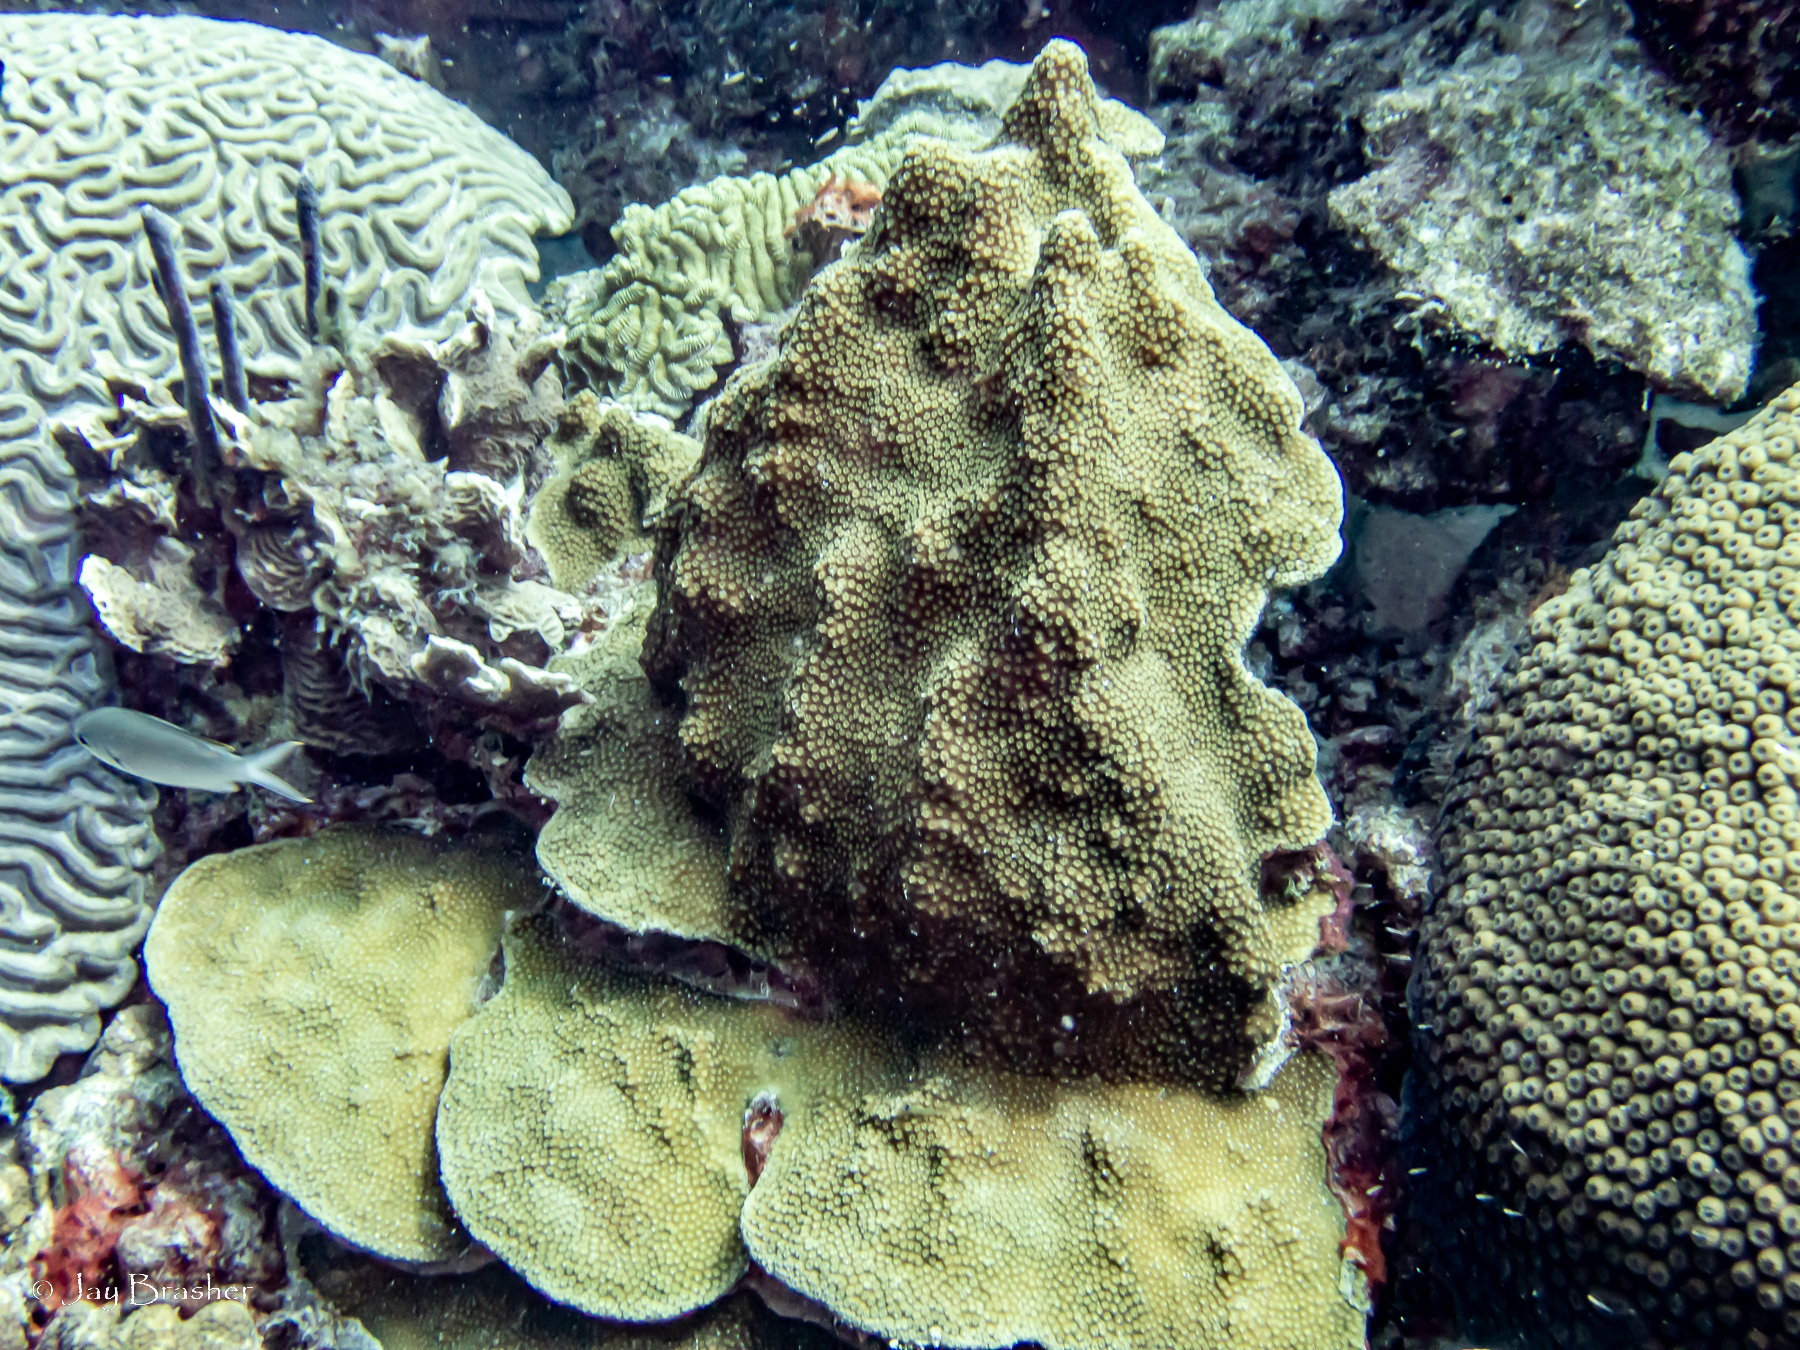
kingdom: Animalia
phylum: Cnidaria
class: Anthozoa
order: Scleractinia
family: Merulinidae
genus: Orbicella
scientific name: Orbicella faveolata
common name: Mountainous star coral
